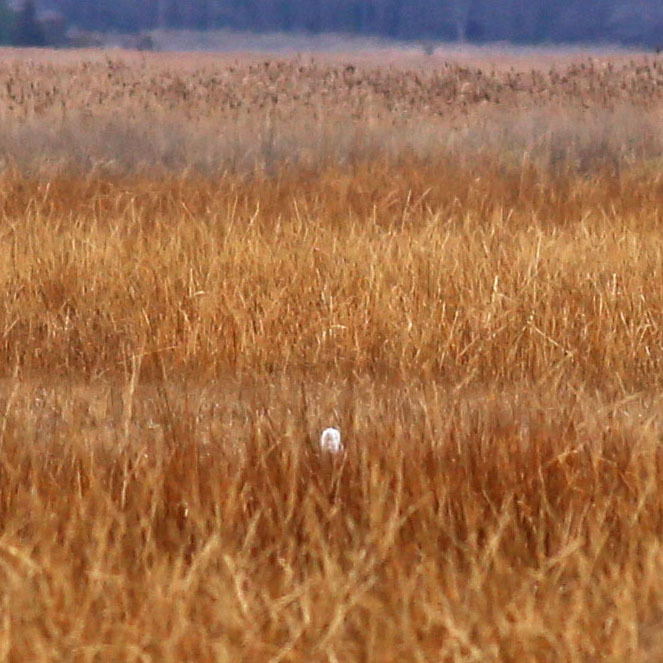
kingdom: Animalia
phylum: Chordata
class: Aves
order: Strigiformes
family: Strigidae
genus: Bubo
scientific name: Bubo scandiacus
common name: Snowy owl
